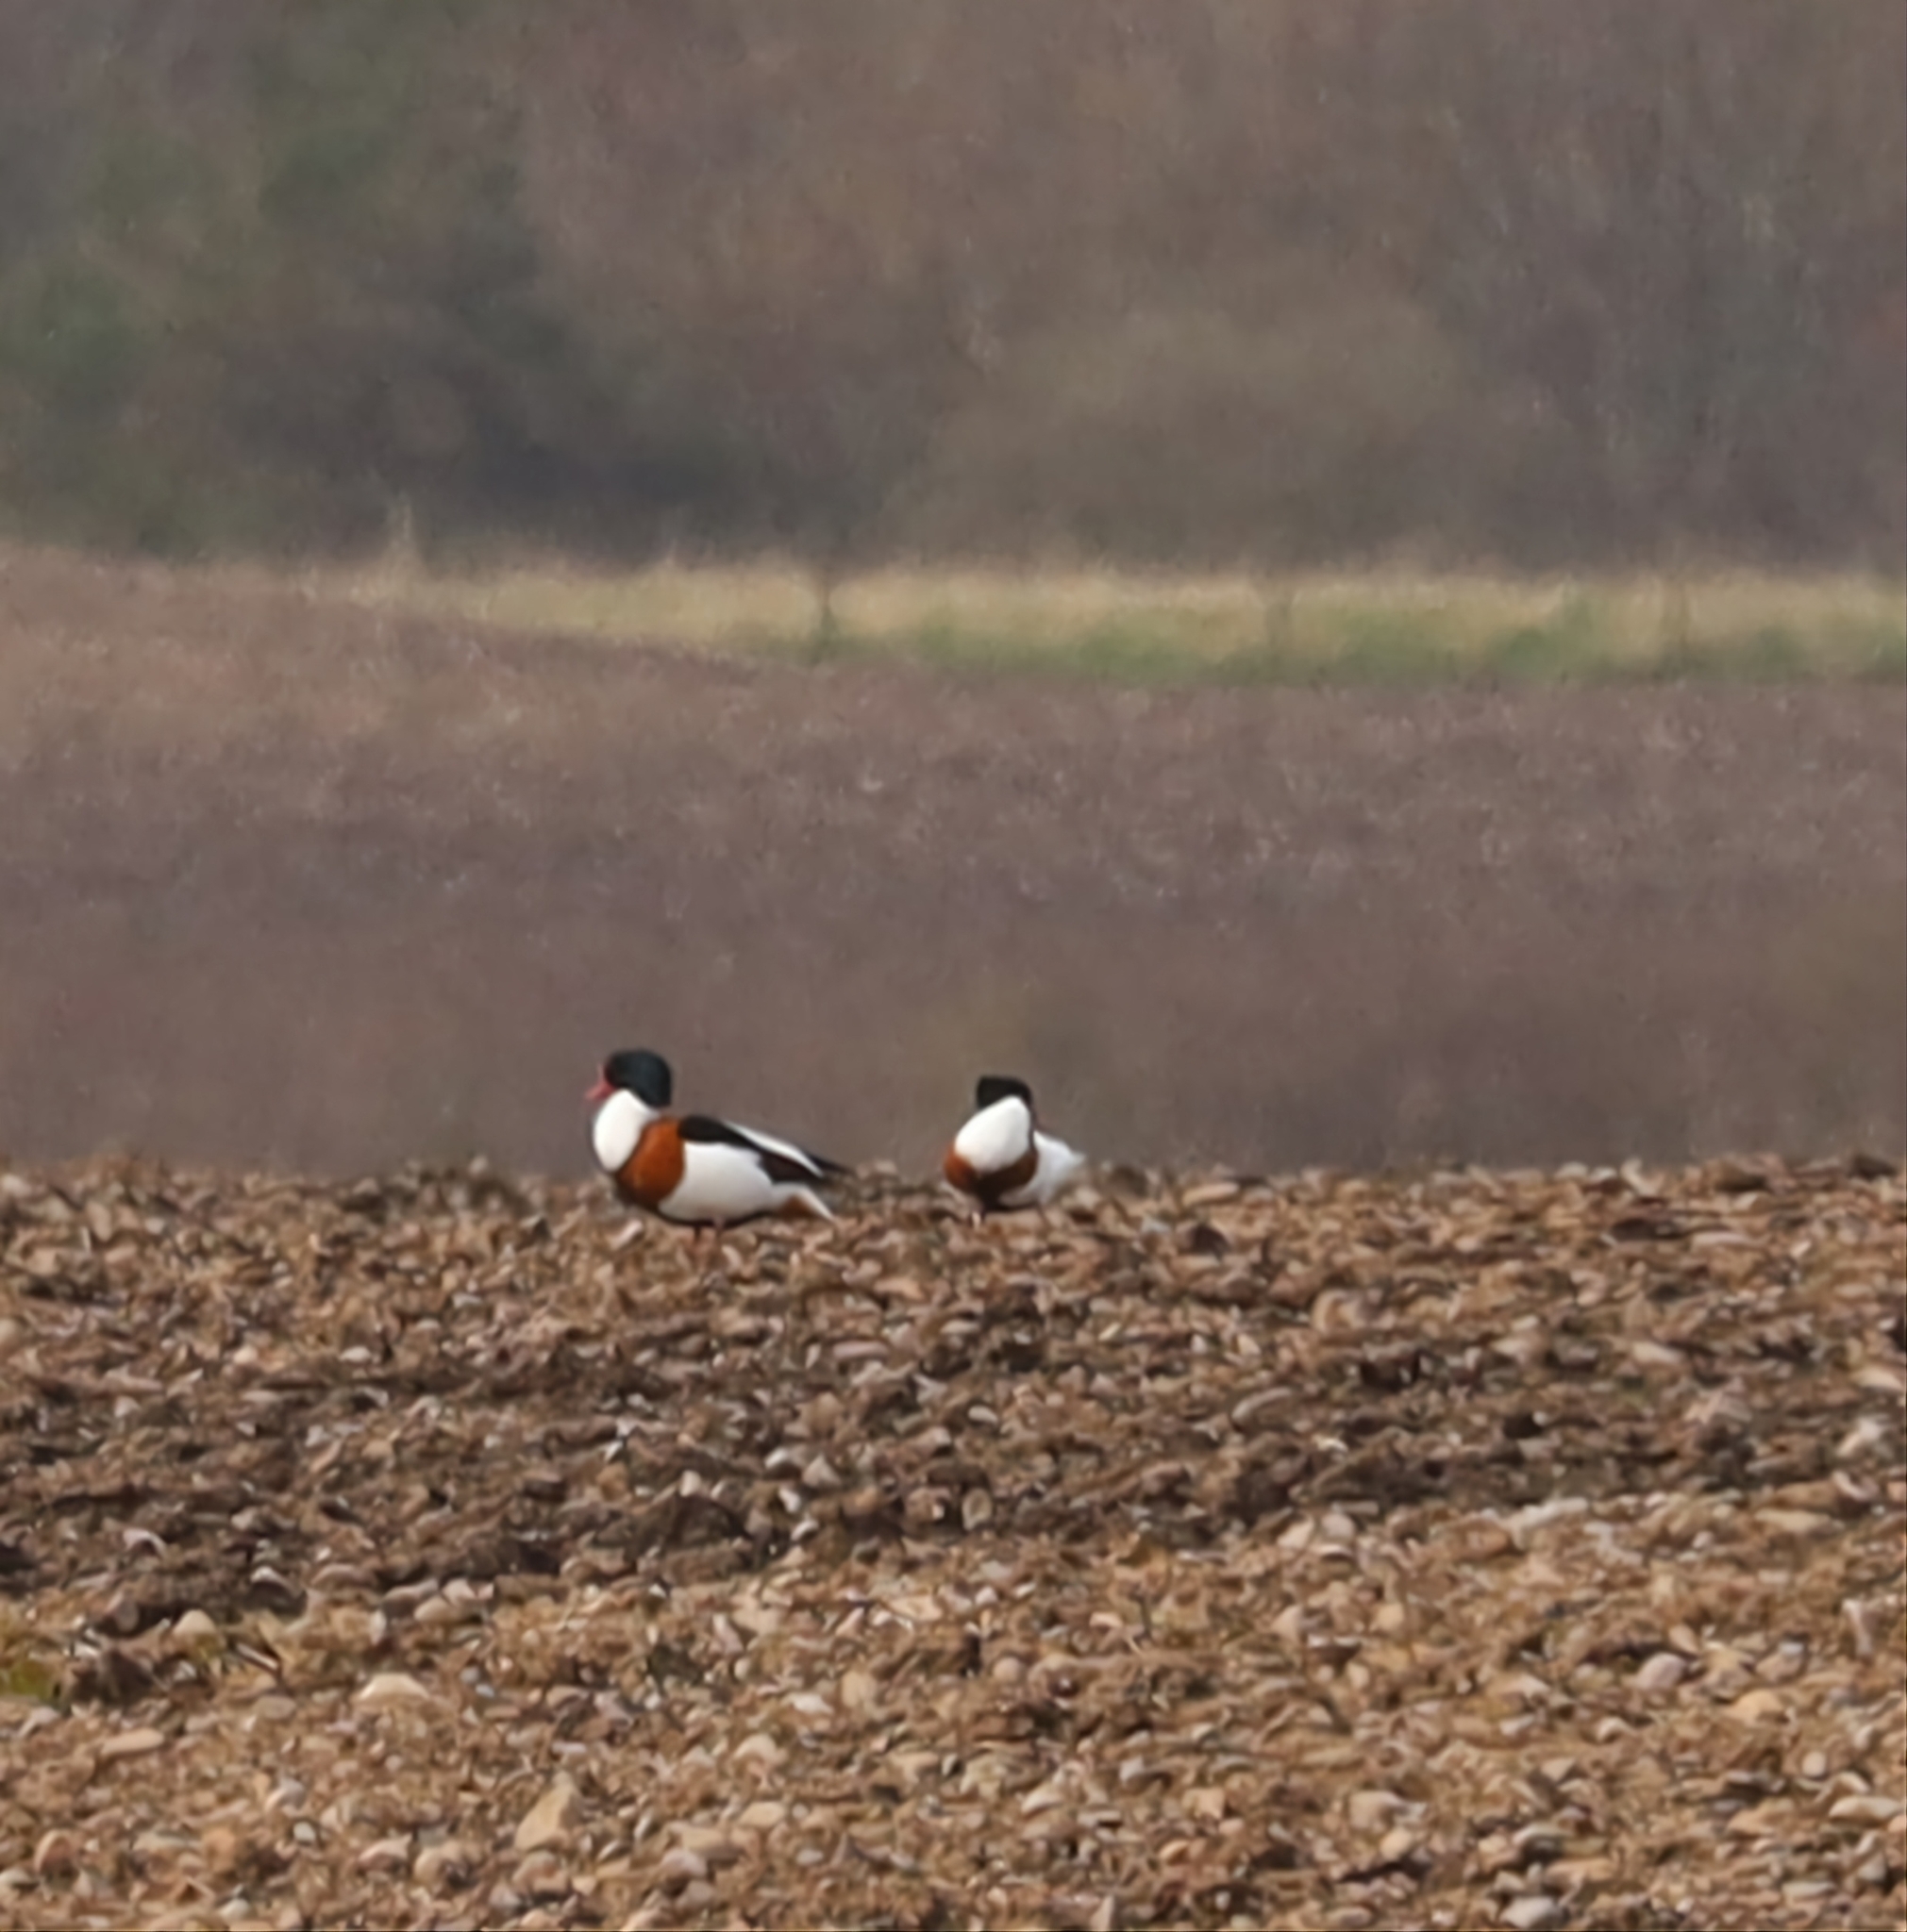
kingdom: Animalia
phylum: Chordata
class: Aves
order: Anseriformes
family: Anatidae
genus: Tadorna
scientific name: Tadorna tadorna
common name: Common shelduck
